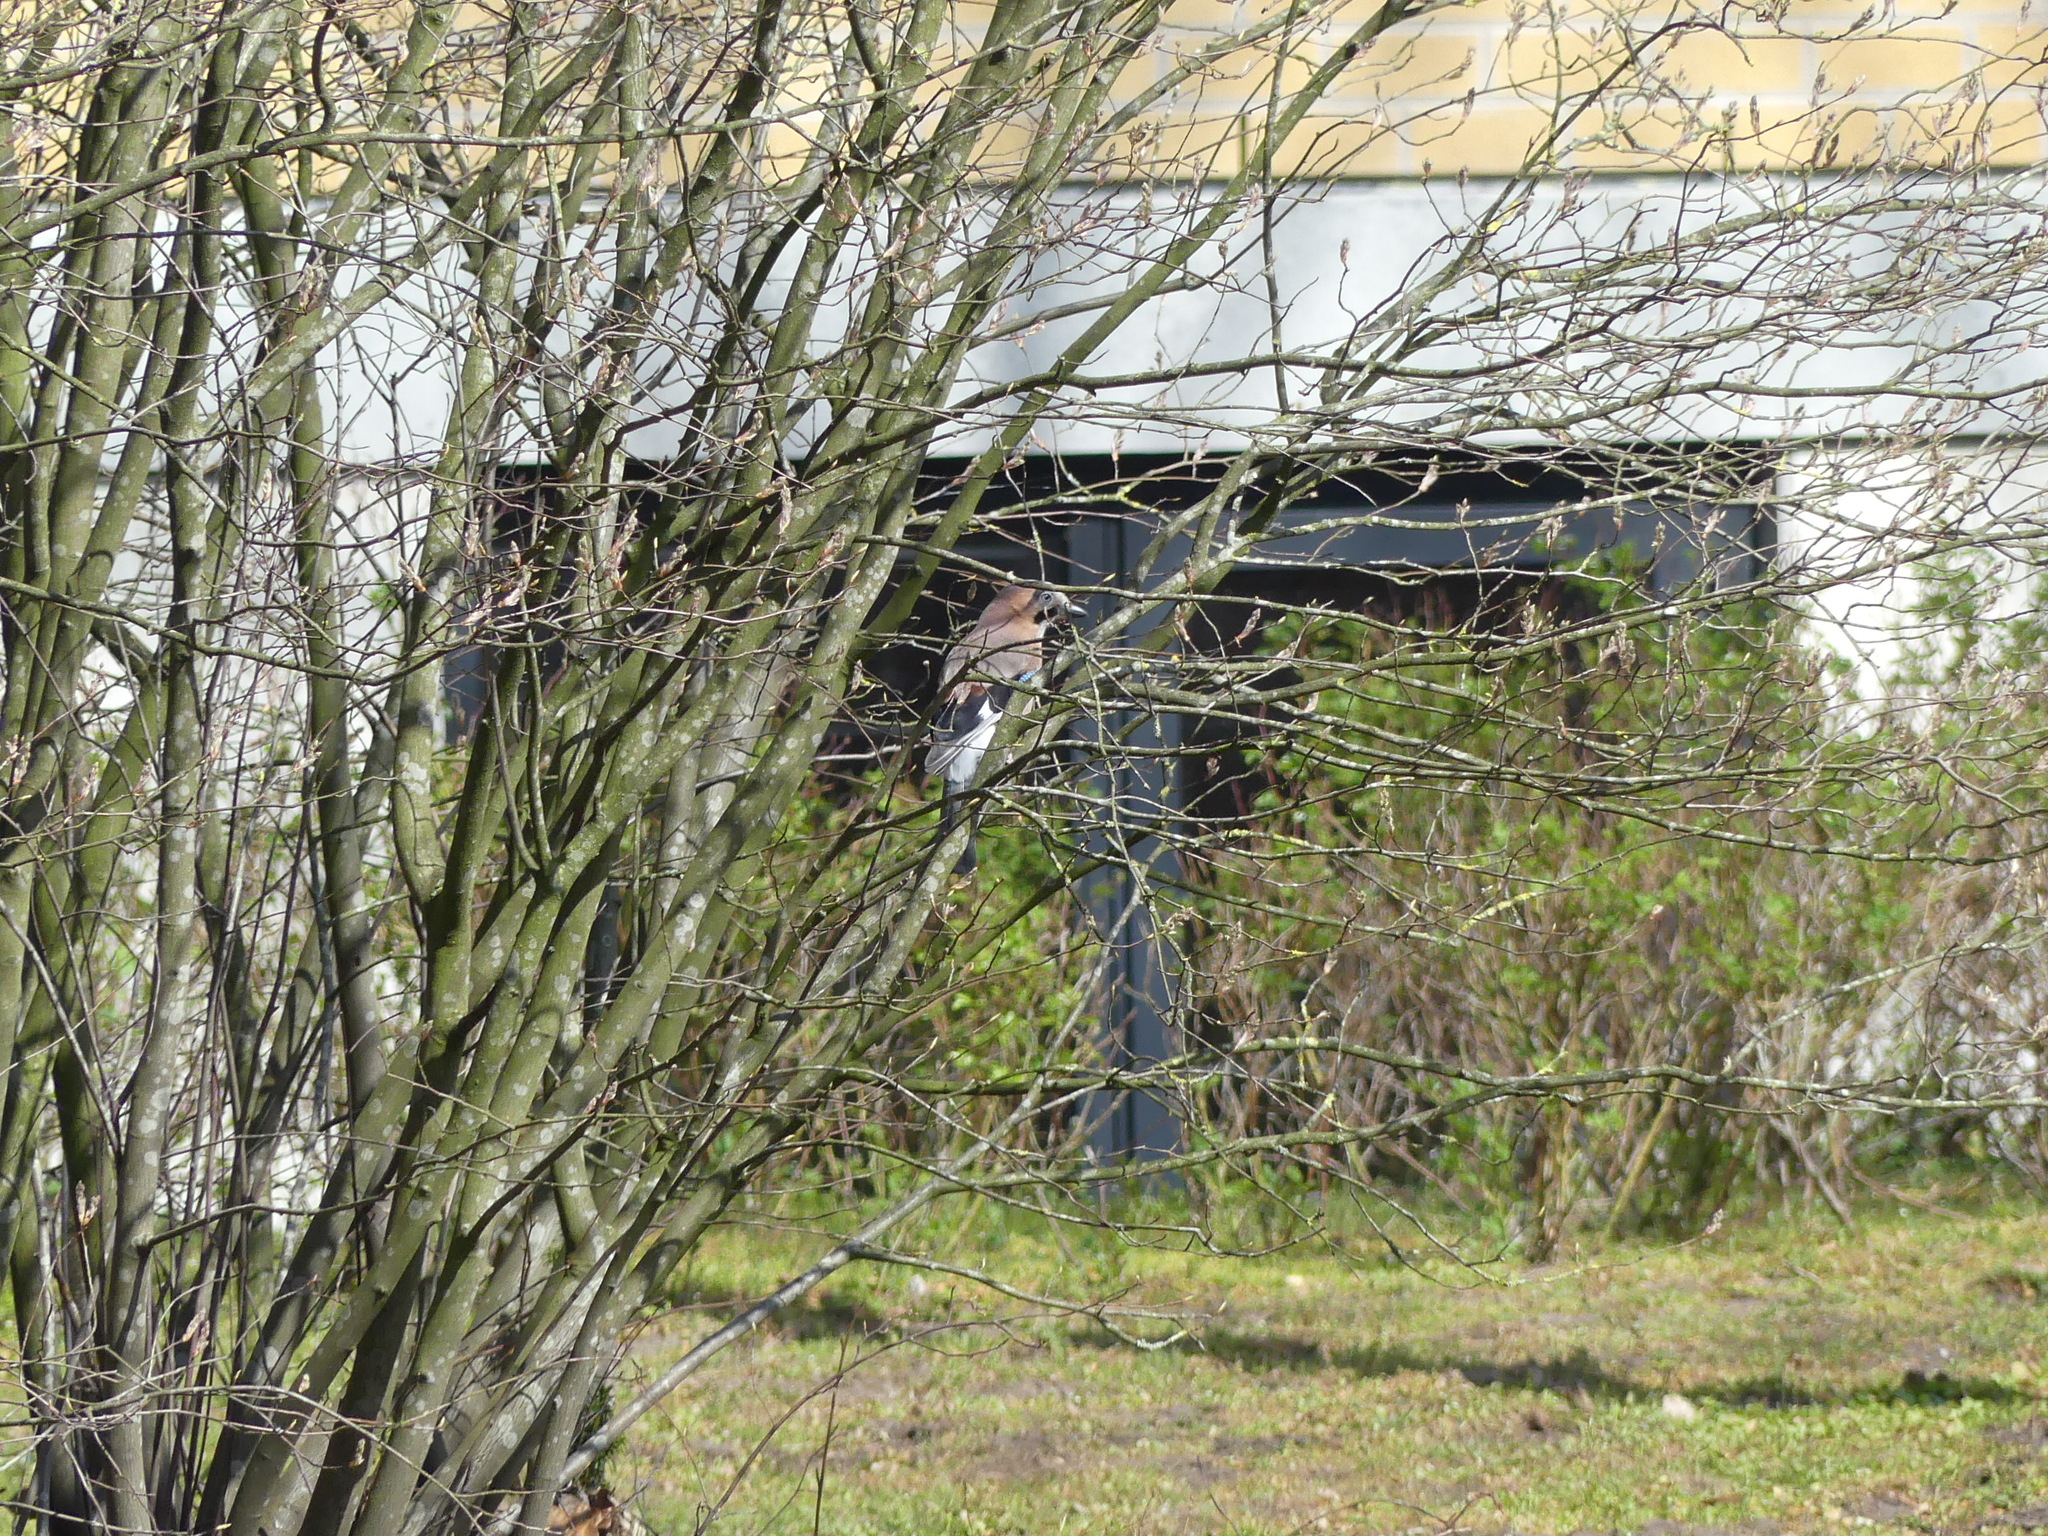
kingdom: Animalia
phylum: Chordata
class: Aves
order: Passeriformes
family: Corvidae
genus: Garrulus
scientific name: Garrulus glandarius
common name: Eurasian jay
